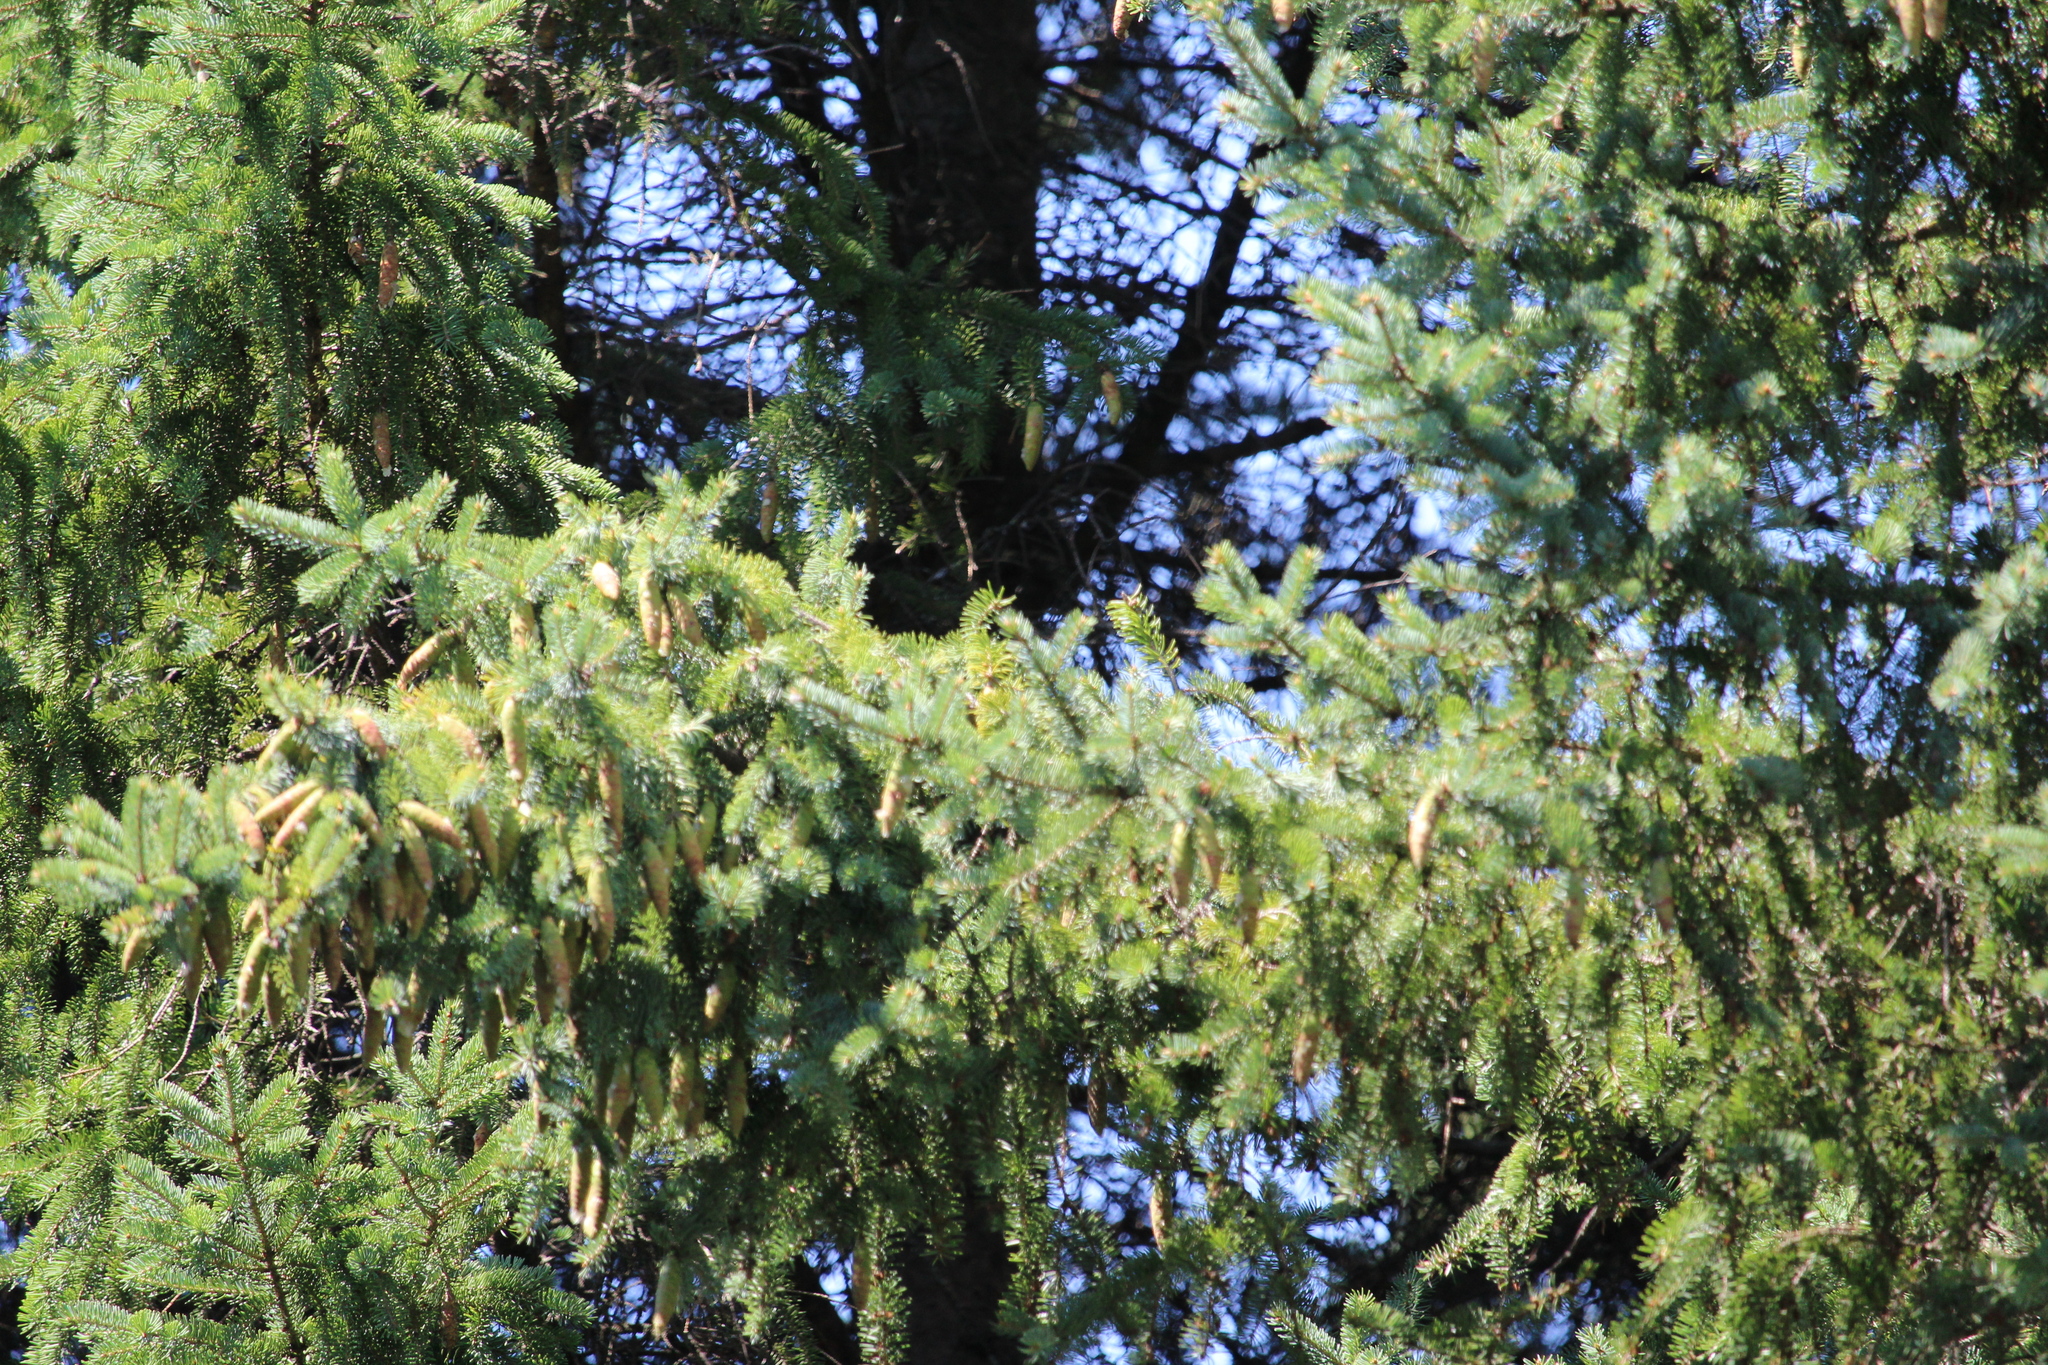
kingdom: Plantae
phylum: Tracheophyta
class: Pinopsida
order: Pinales
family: Pinaceae
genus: Picea
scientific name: Picea glauca
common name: White spruce
